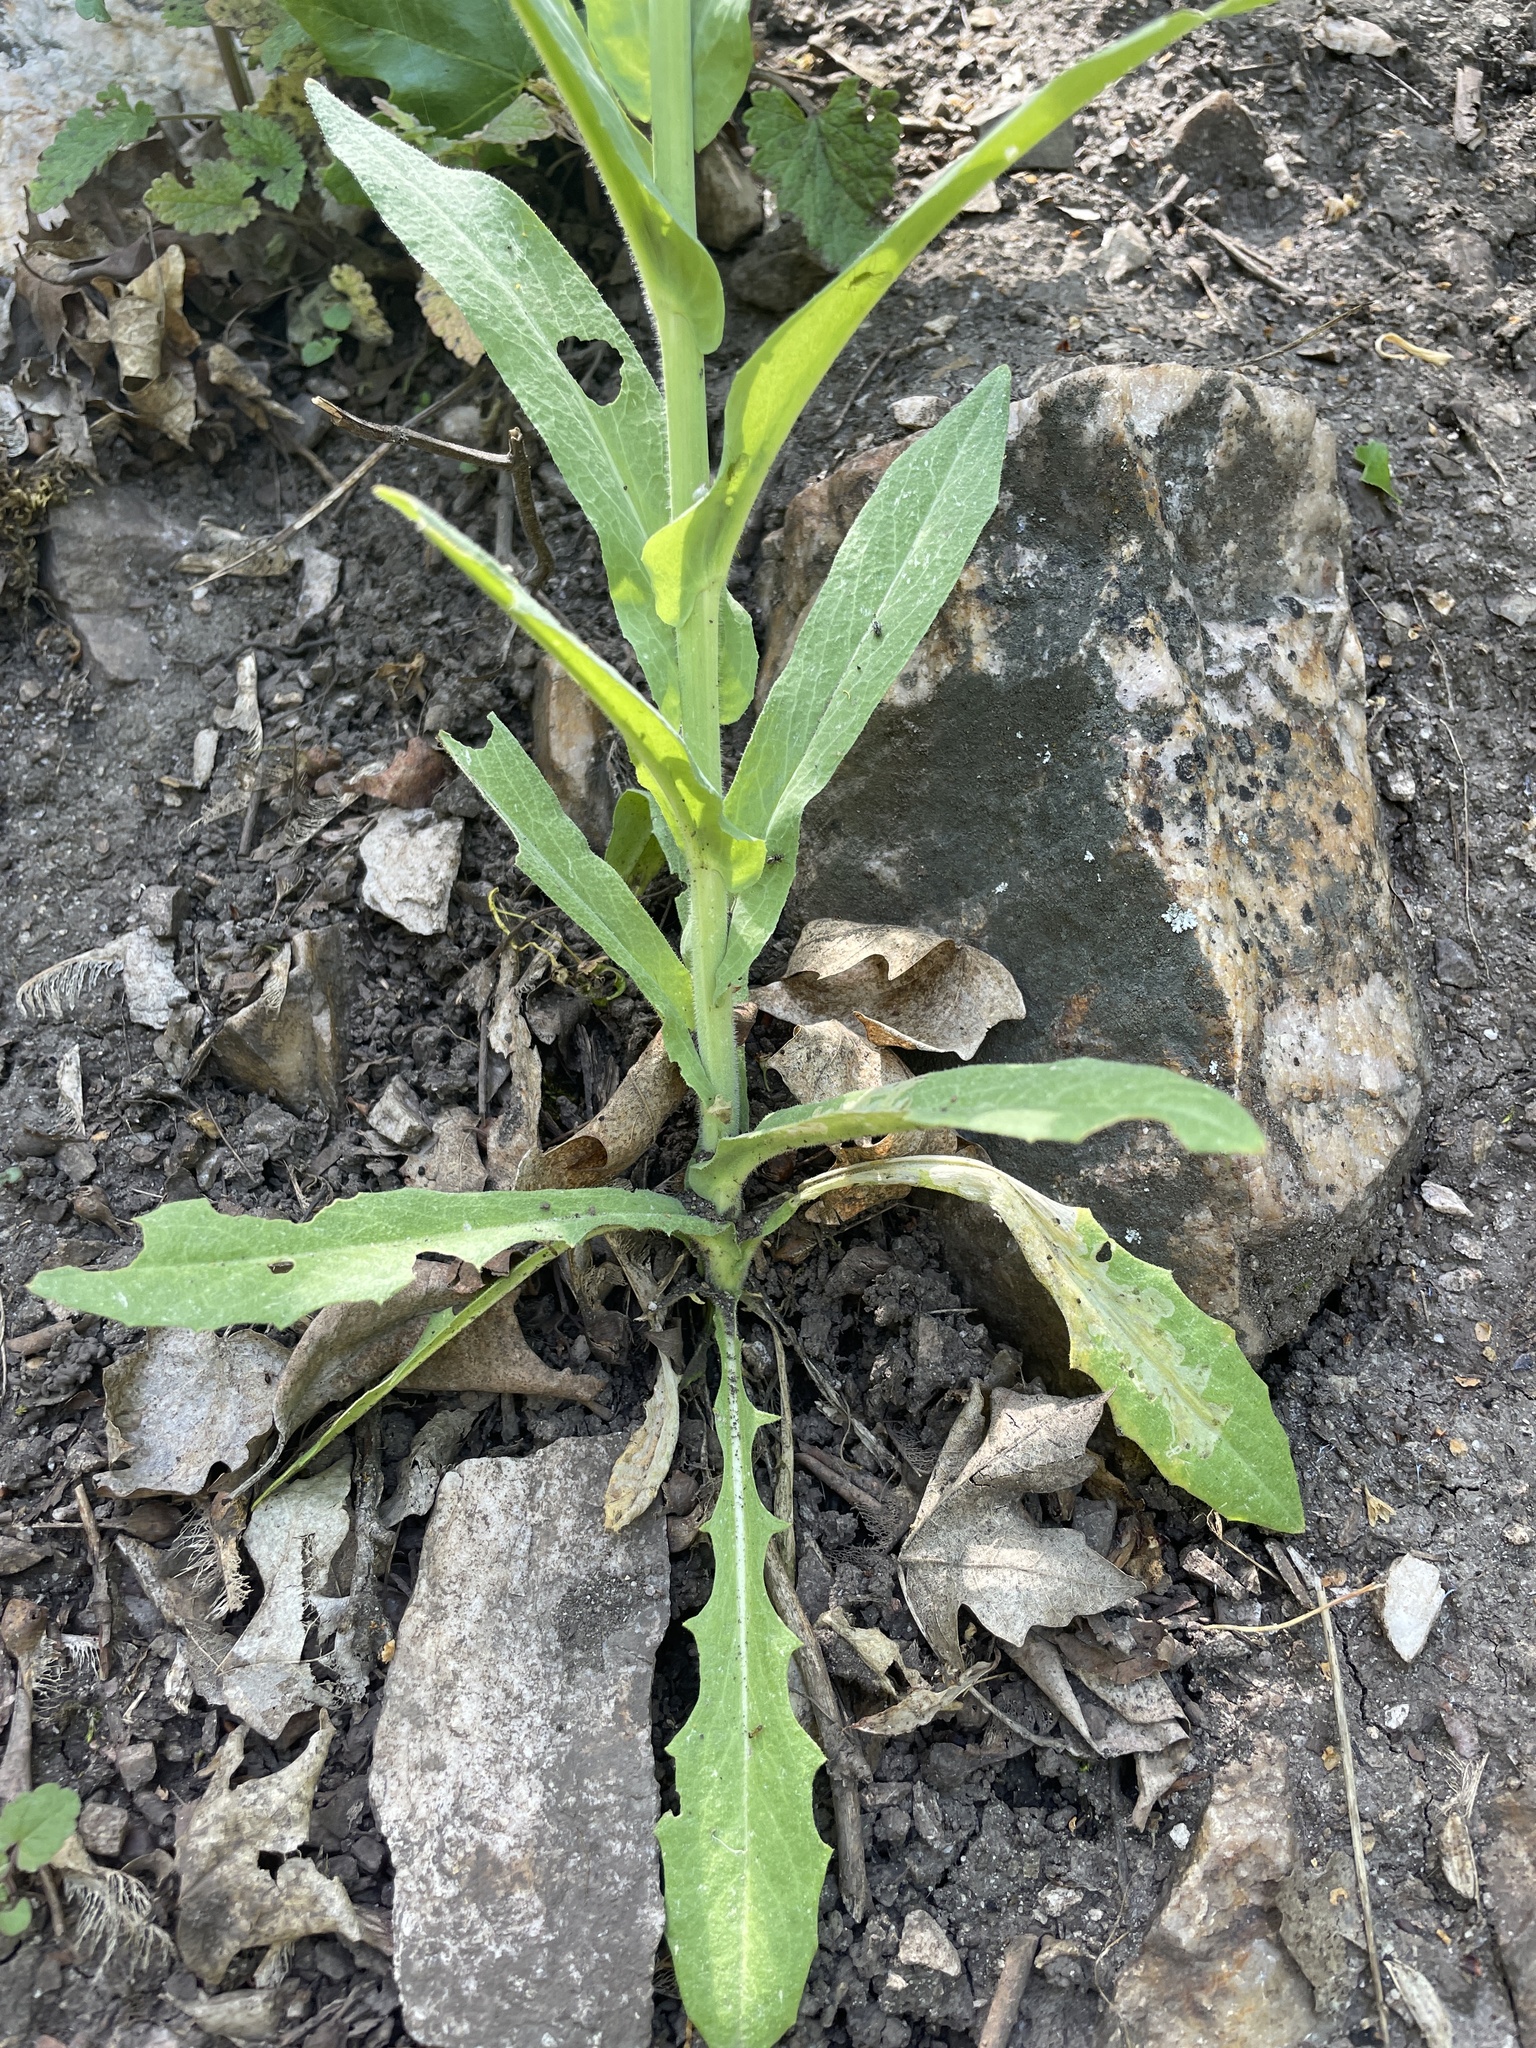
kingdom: Plantae
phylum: Tracheophyta
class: Magnoliopsida
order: Brassicales
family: Brassicaceae
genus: Turritis
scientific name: Turritis glabra
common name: Tower rockcress
